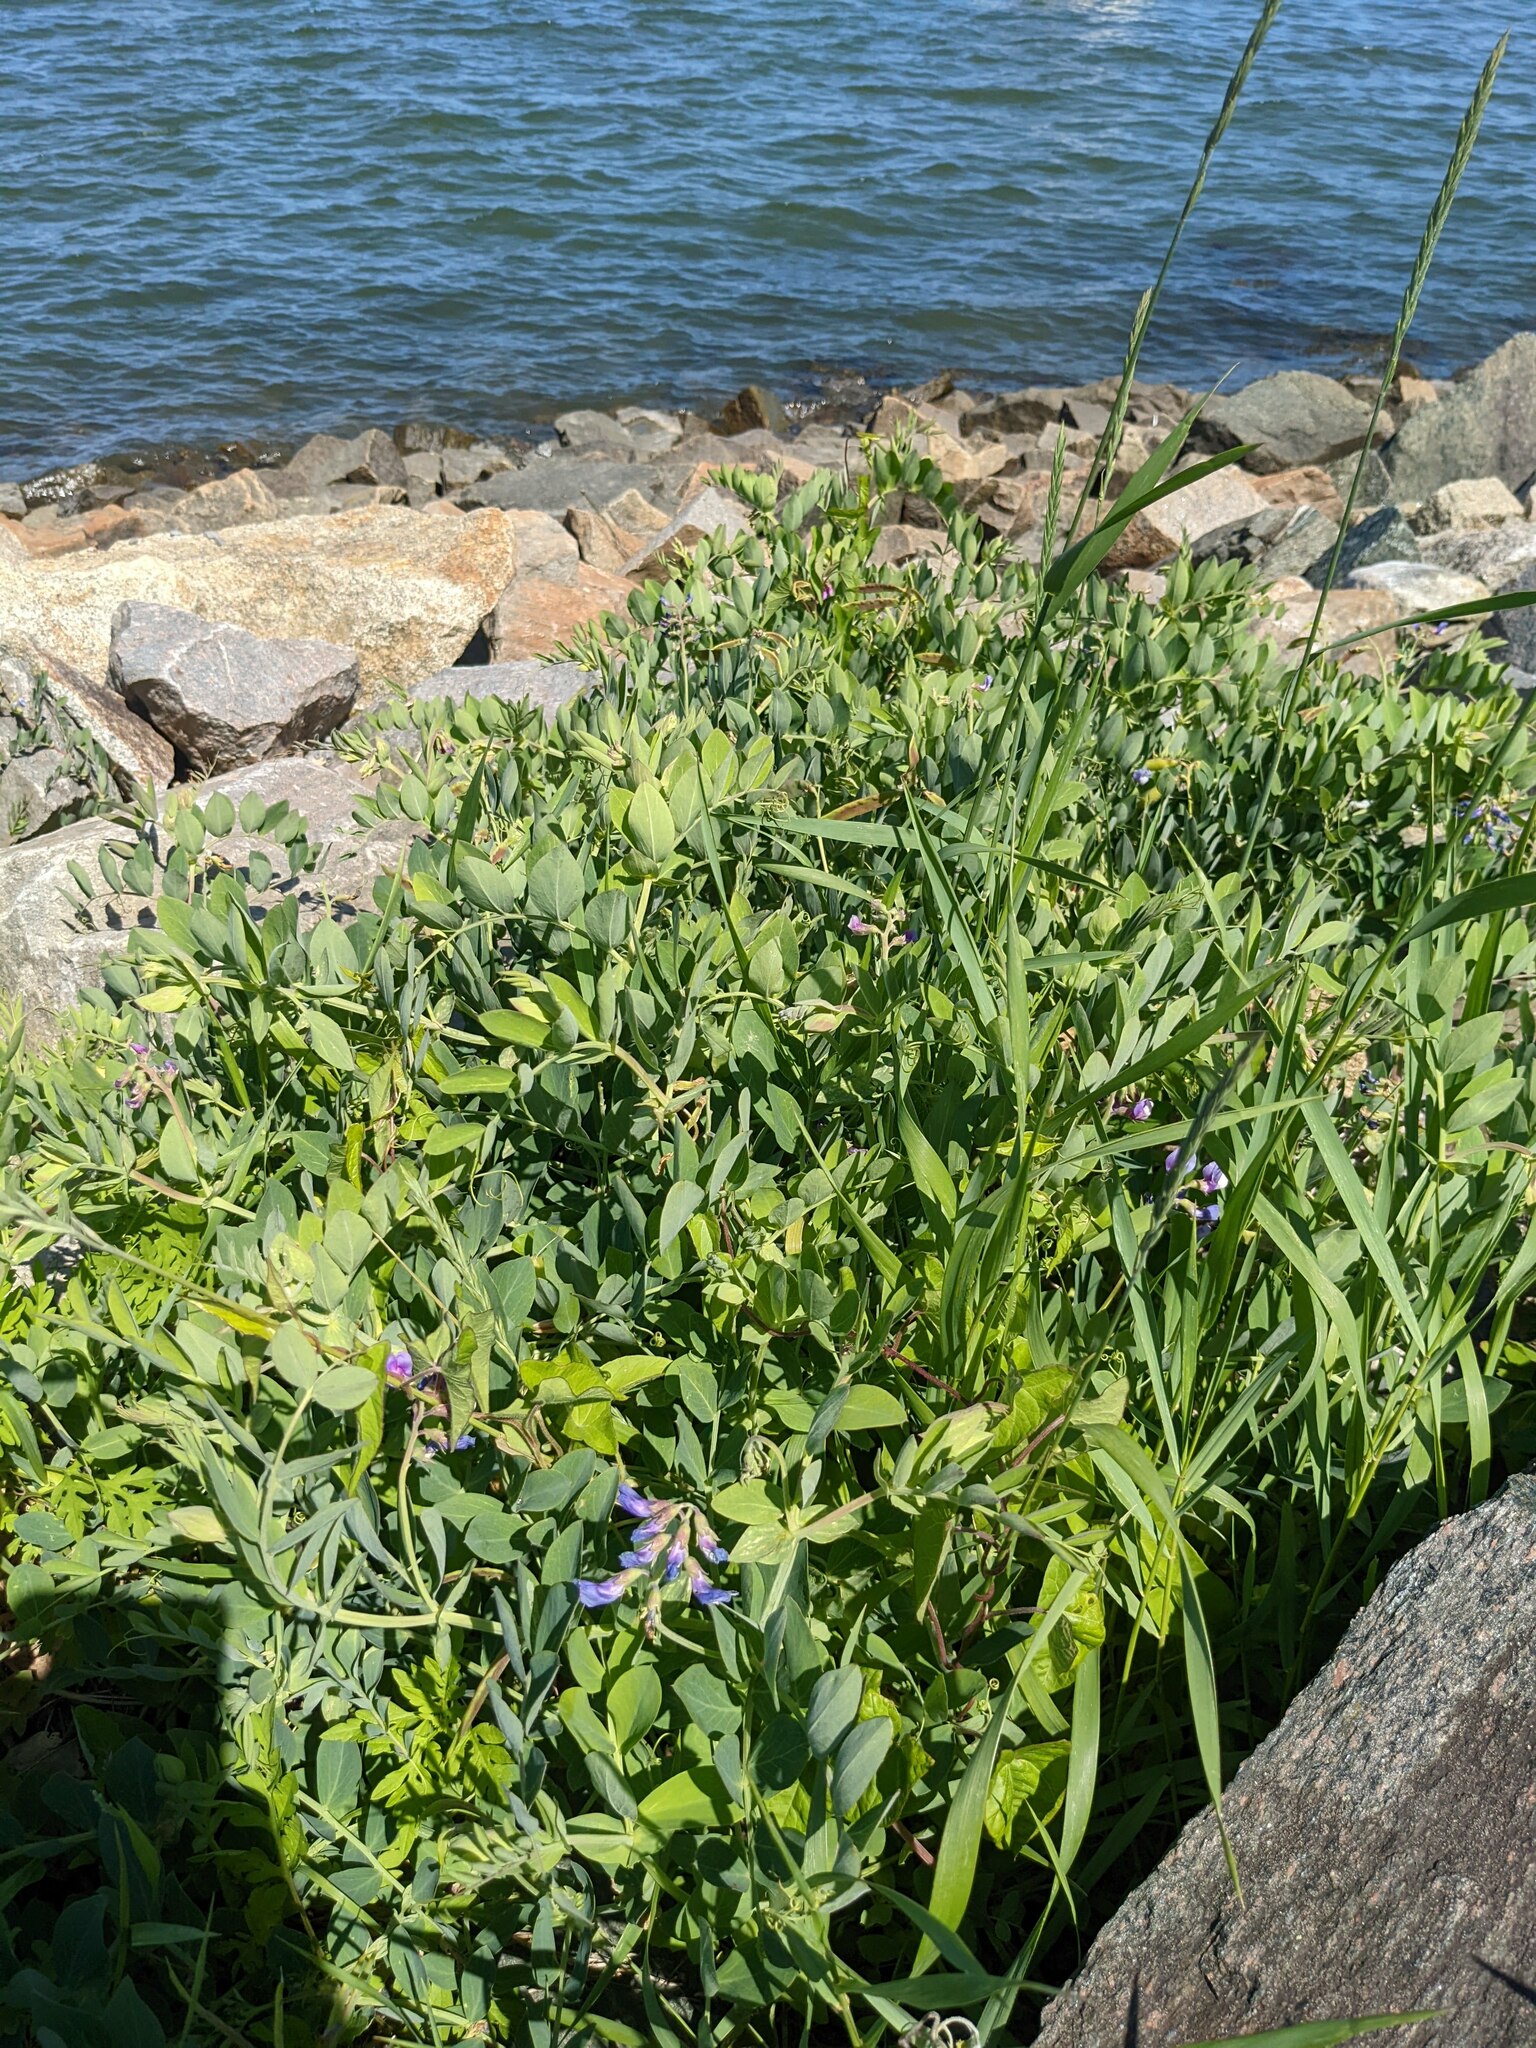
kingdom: Plantae
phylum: Tracheophyta
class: Magnoliopsida
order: Fabales
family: Fabaceae
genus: Lathyrus
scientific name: Lathyrus japonicus
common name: Sea pea
